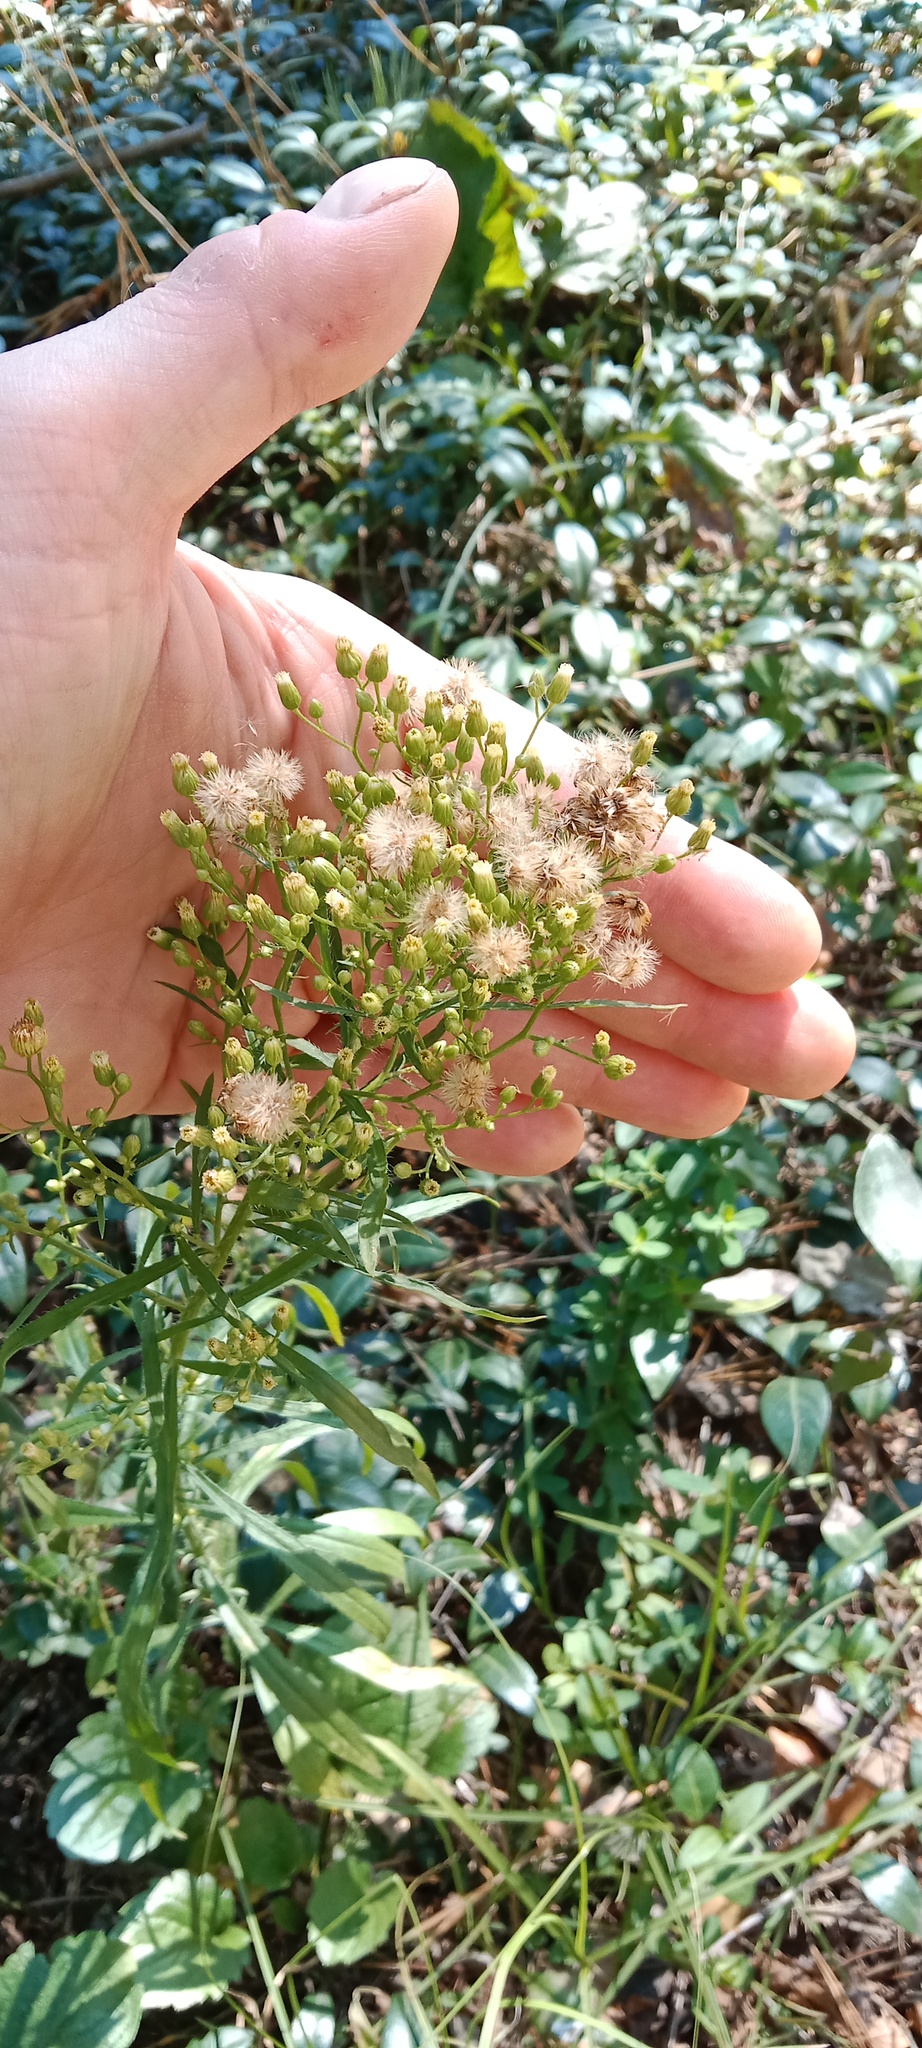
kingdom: Plantae
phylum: Tracheophyta
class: Magnoliopsida
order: Asterales
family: Asteraceae
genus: Erigeron
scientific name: Erigeron canadensis
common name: Canadian fleabane
